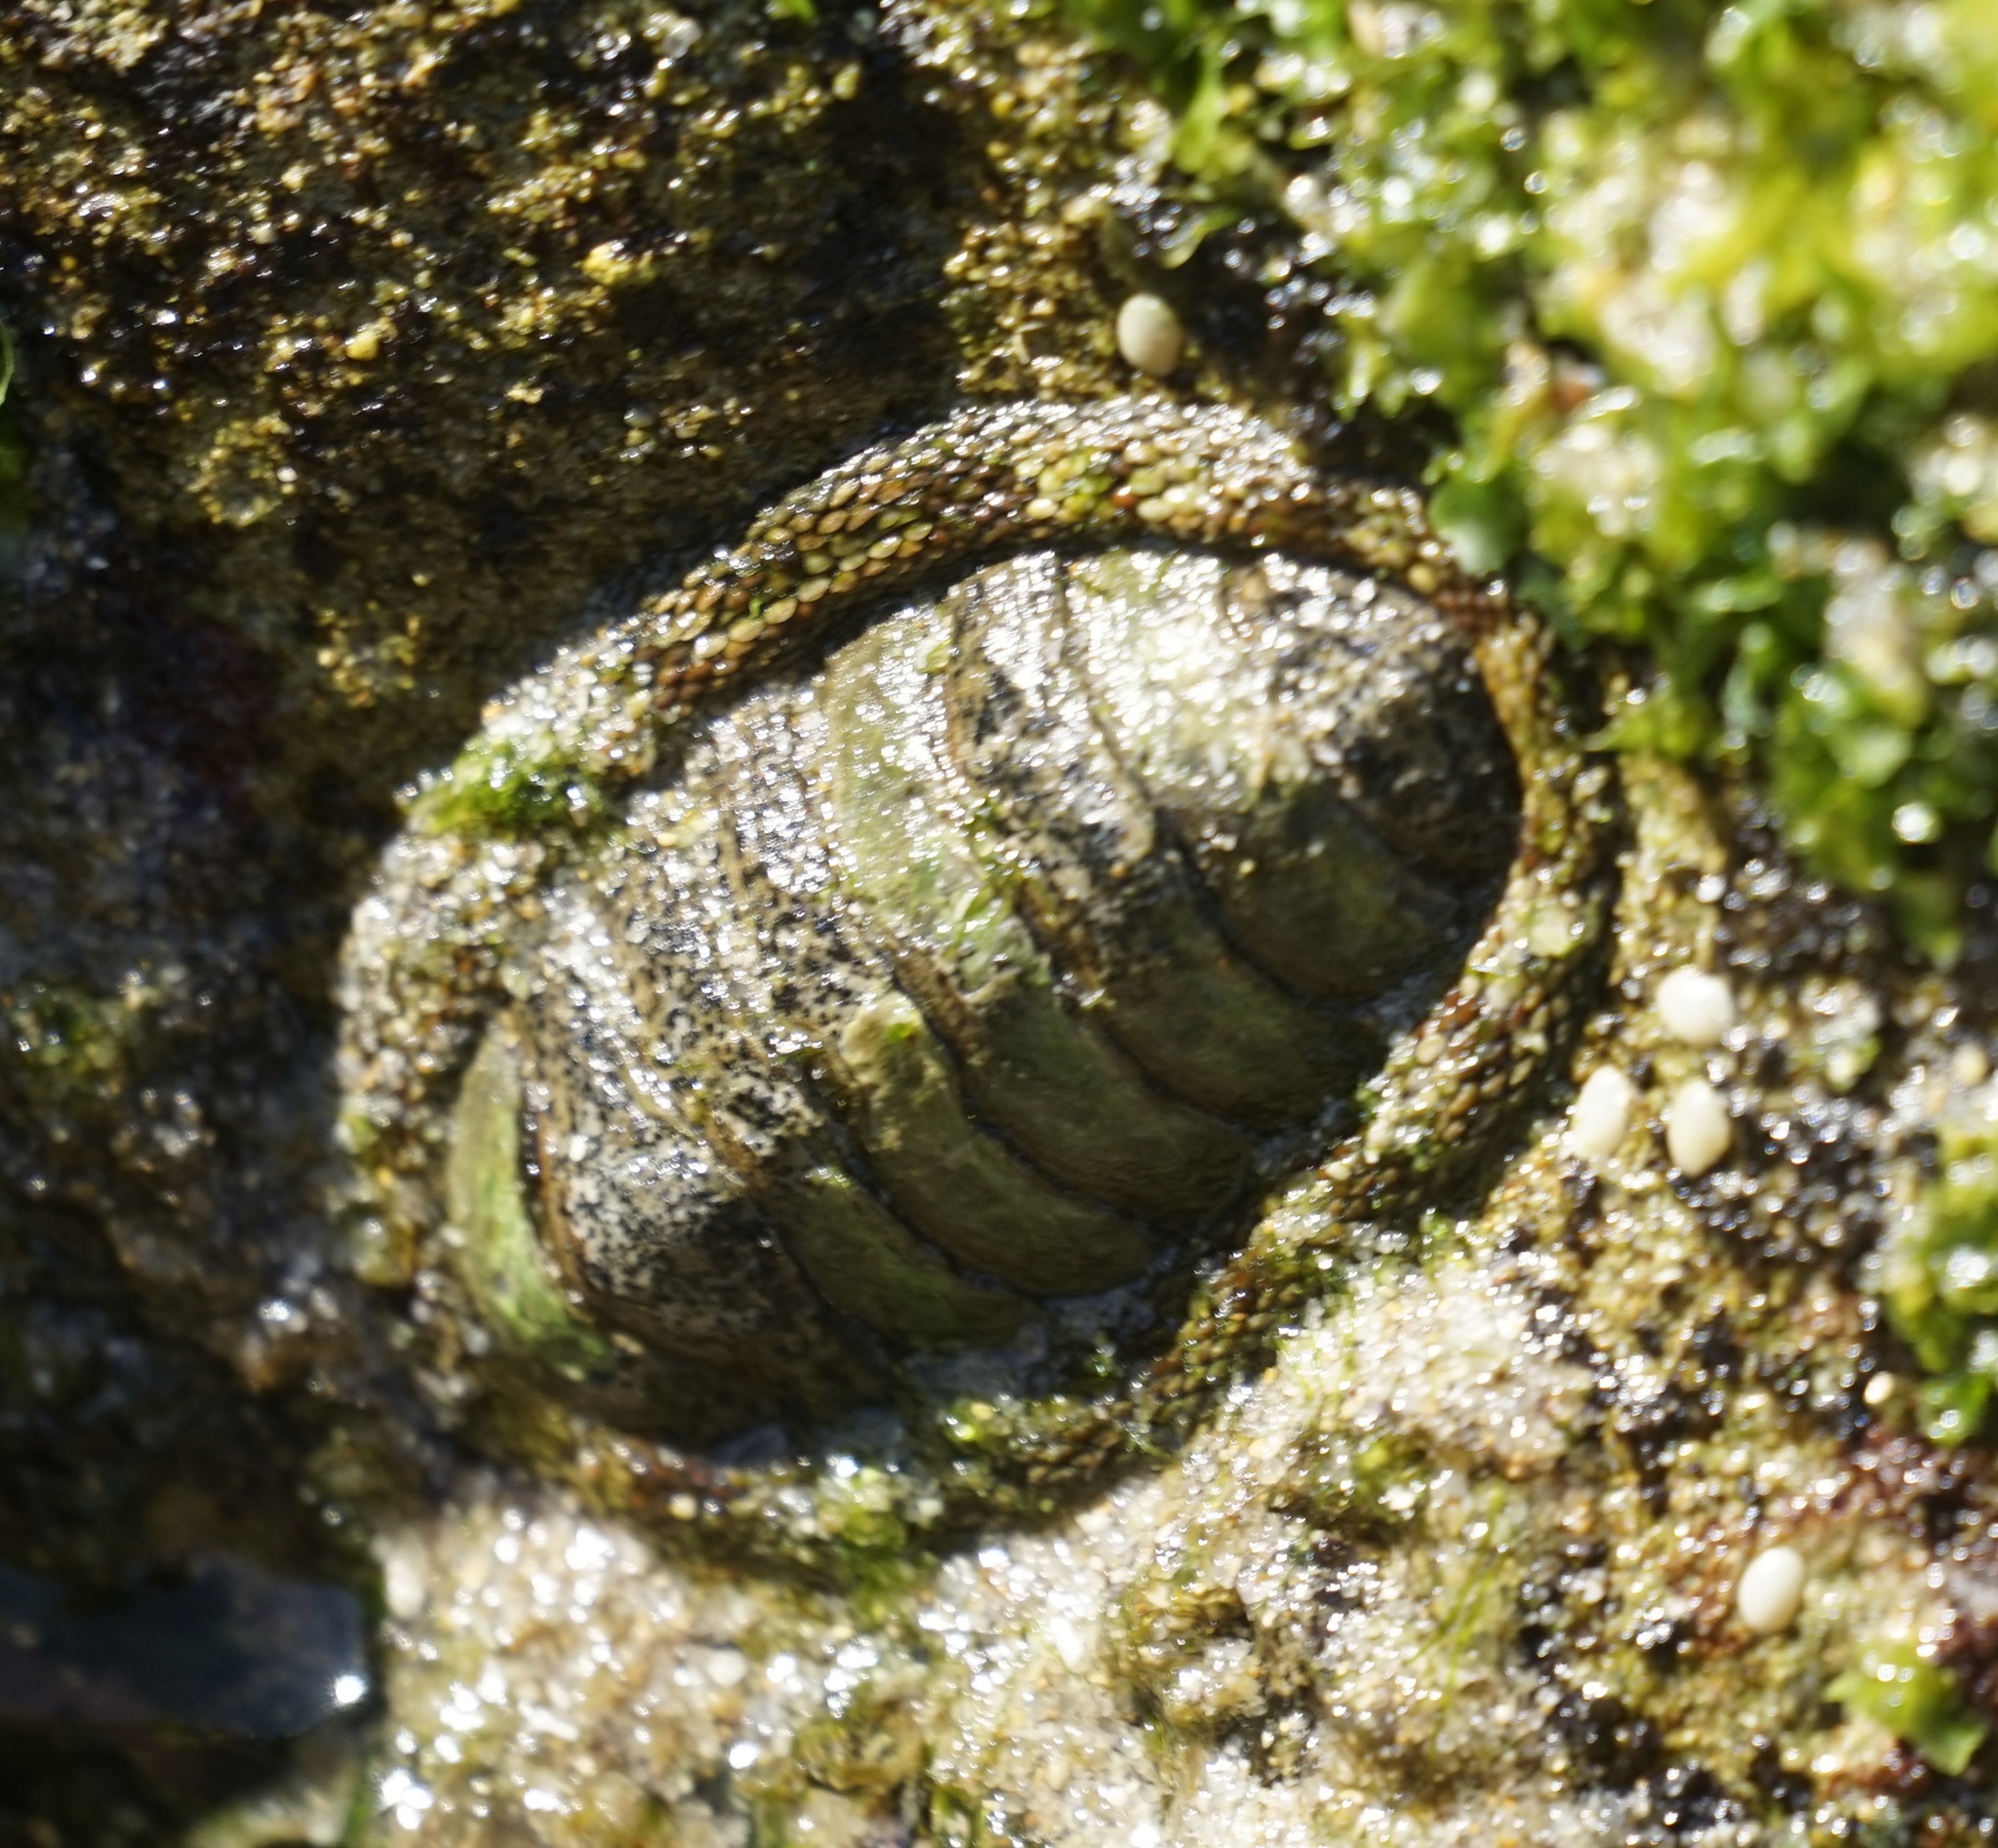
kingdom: Animalia
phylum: Mollusca
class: Polyplacophora
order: Chitonida
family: Chitonidae
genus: Sypharochiton
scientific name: Sypharochiton pelliserpentis
